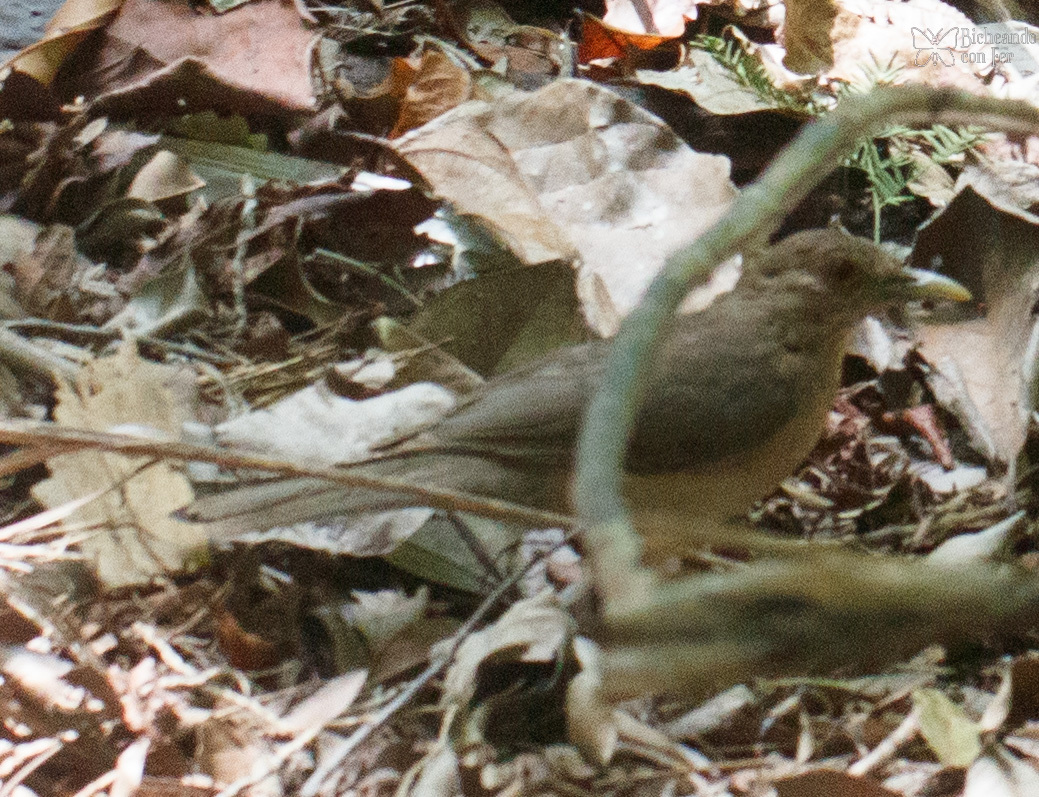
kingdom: Animalia
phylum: Chordata
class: Aves
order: Passeriformes
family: Turdidae
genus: Turdus
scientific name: Turdus grayi
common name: Clay-colored thrush
